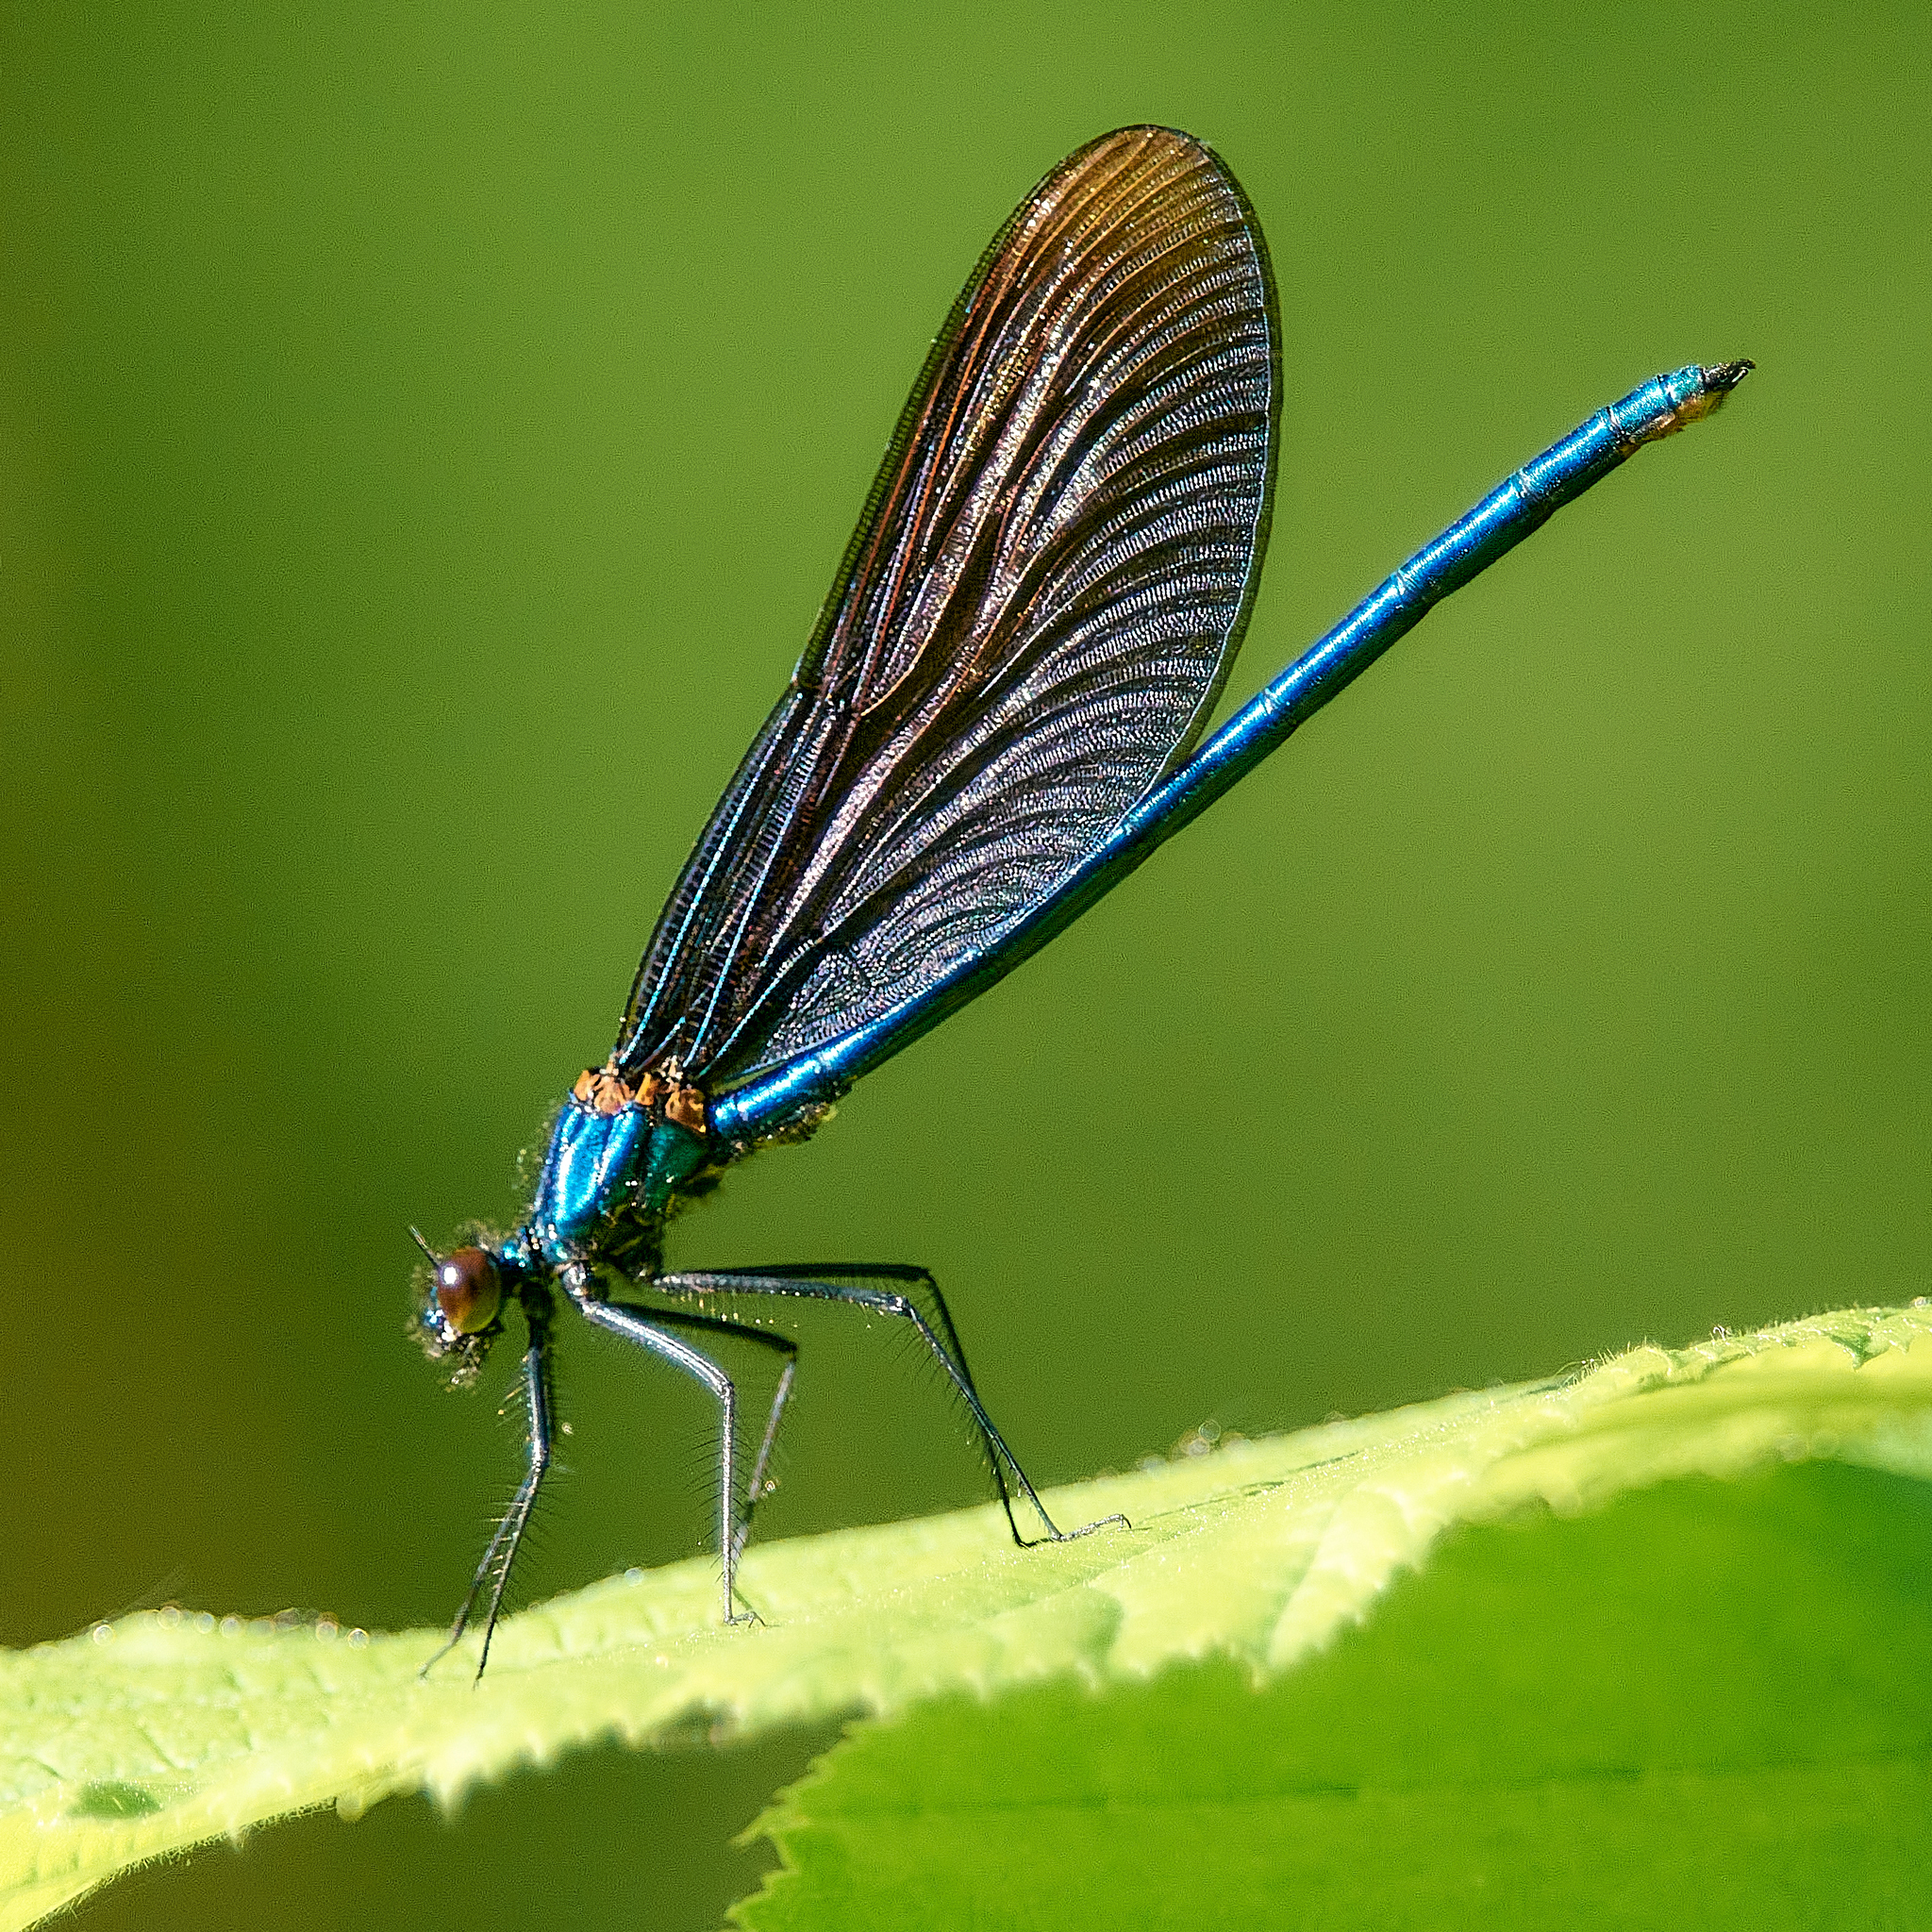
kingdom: Animalia
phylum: Arthropoda
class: Insecta
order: Odonata
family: Calopterygidae
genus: Calopteryx
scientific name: Calopteryx virgo
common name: Beautiful demoiselle
